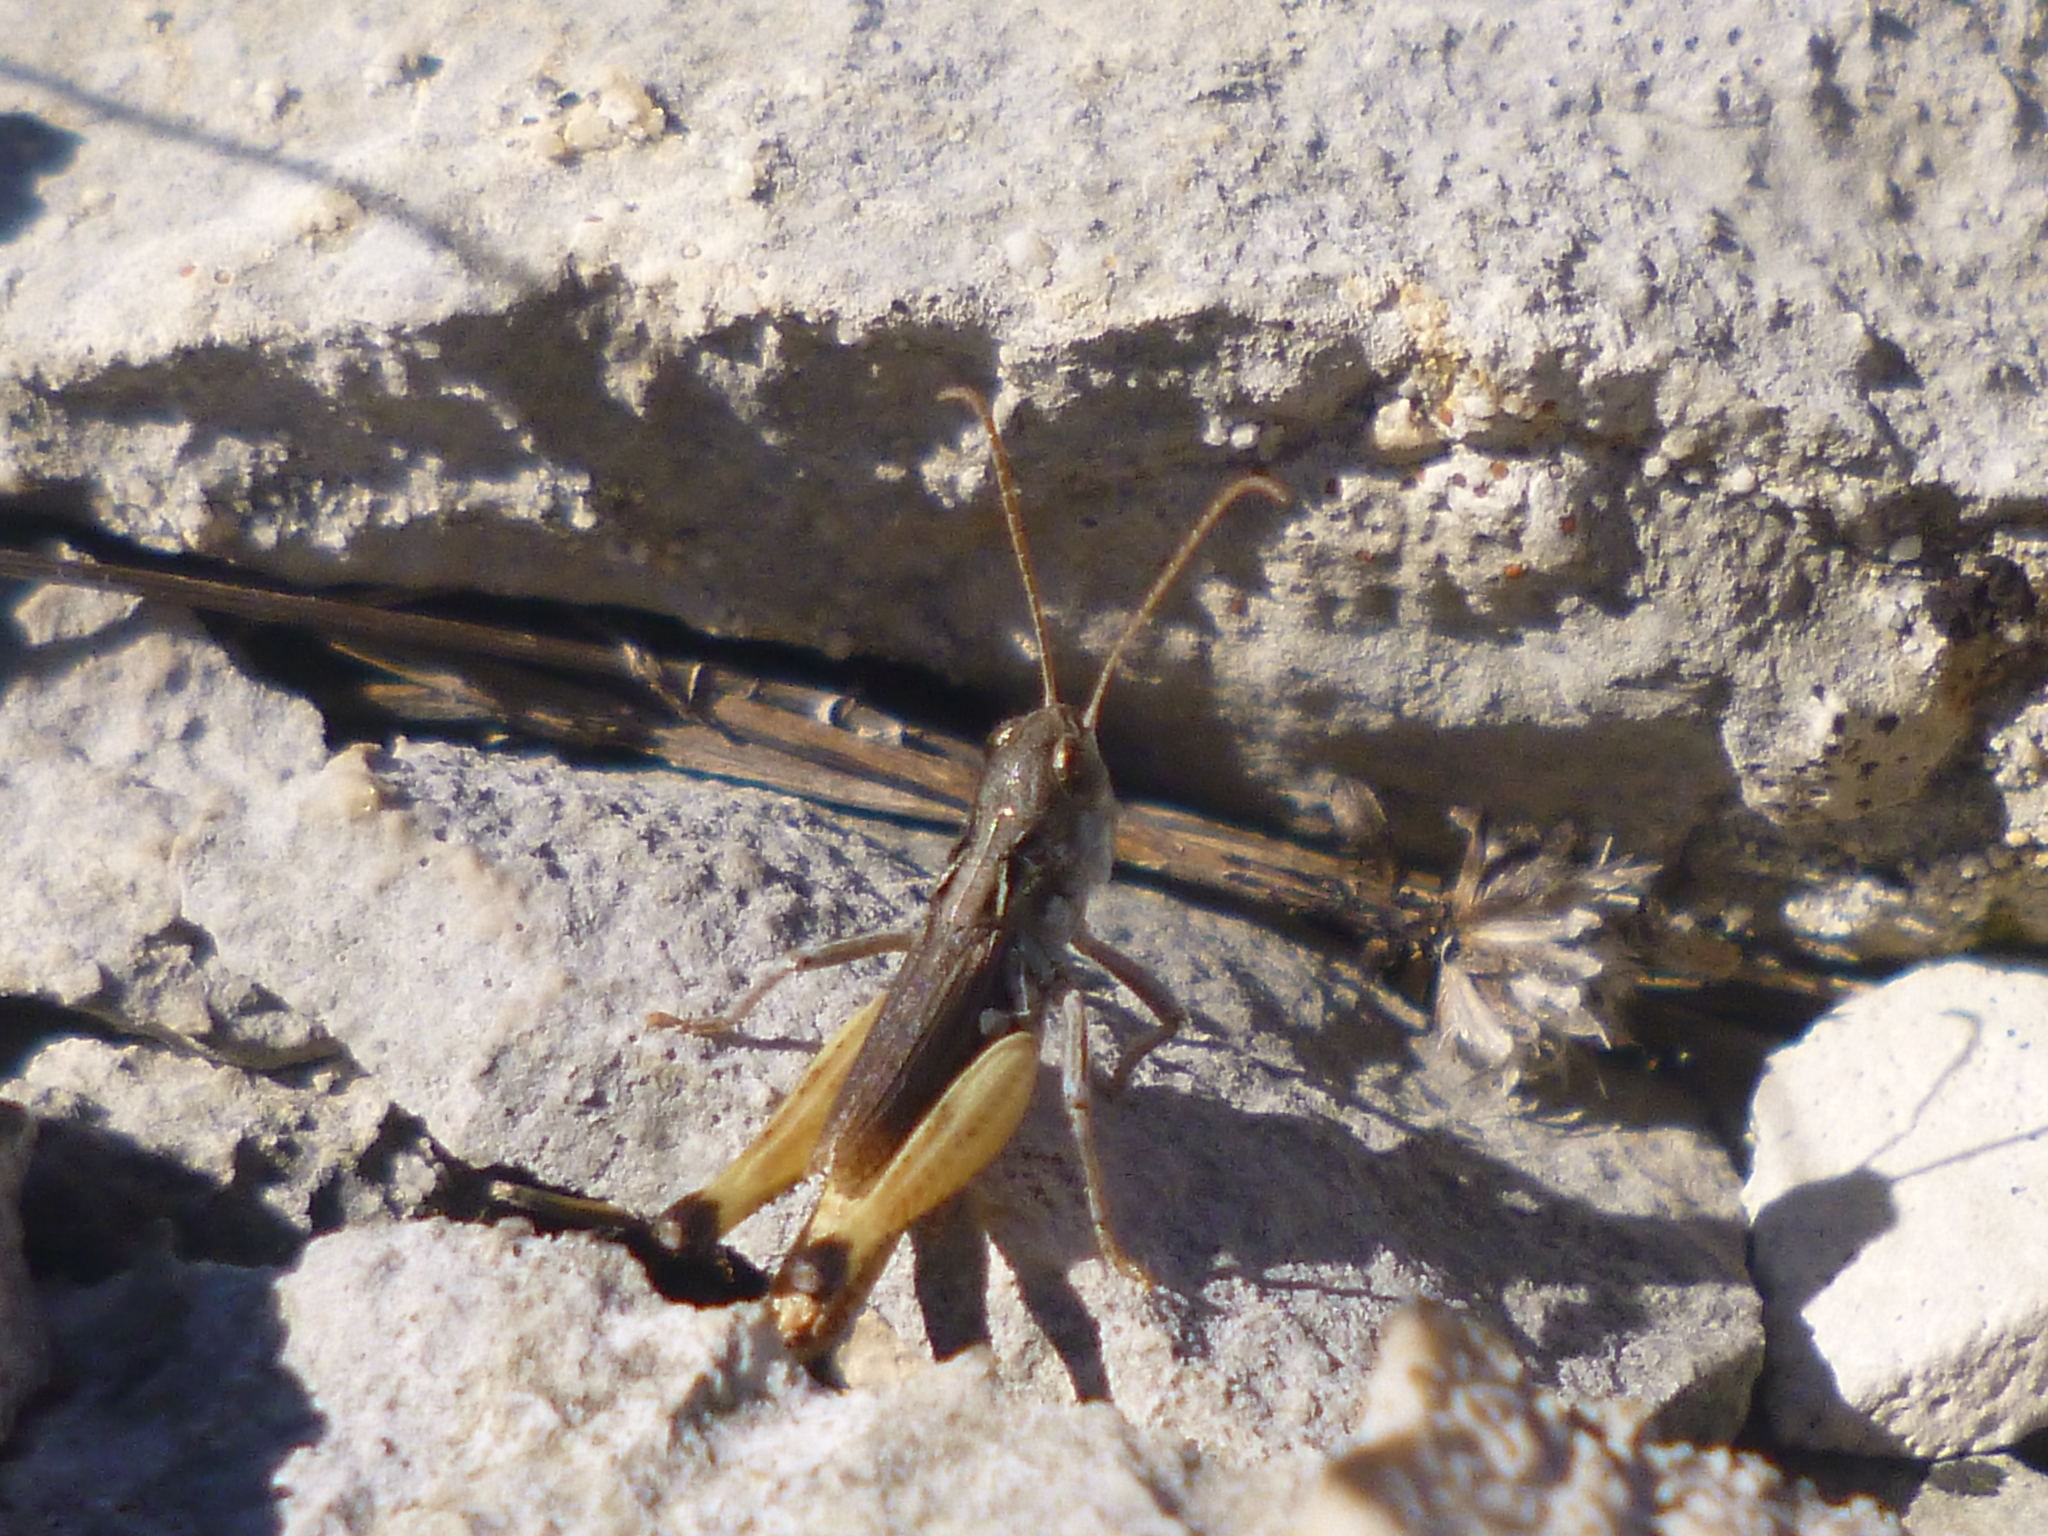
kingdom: Animalia
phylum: Arthropoda
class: Insecta
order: Orthoptera
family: Acrididae
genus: Rammeihippus
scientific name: Rammeihippus dinaricus
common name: Dinarian grasshopper
